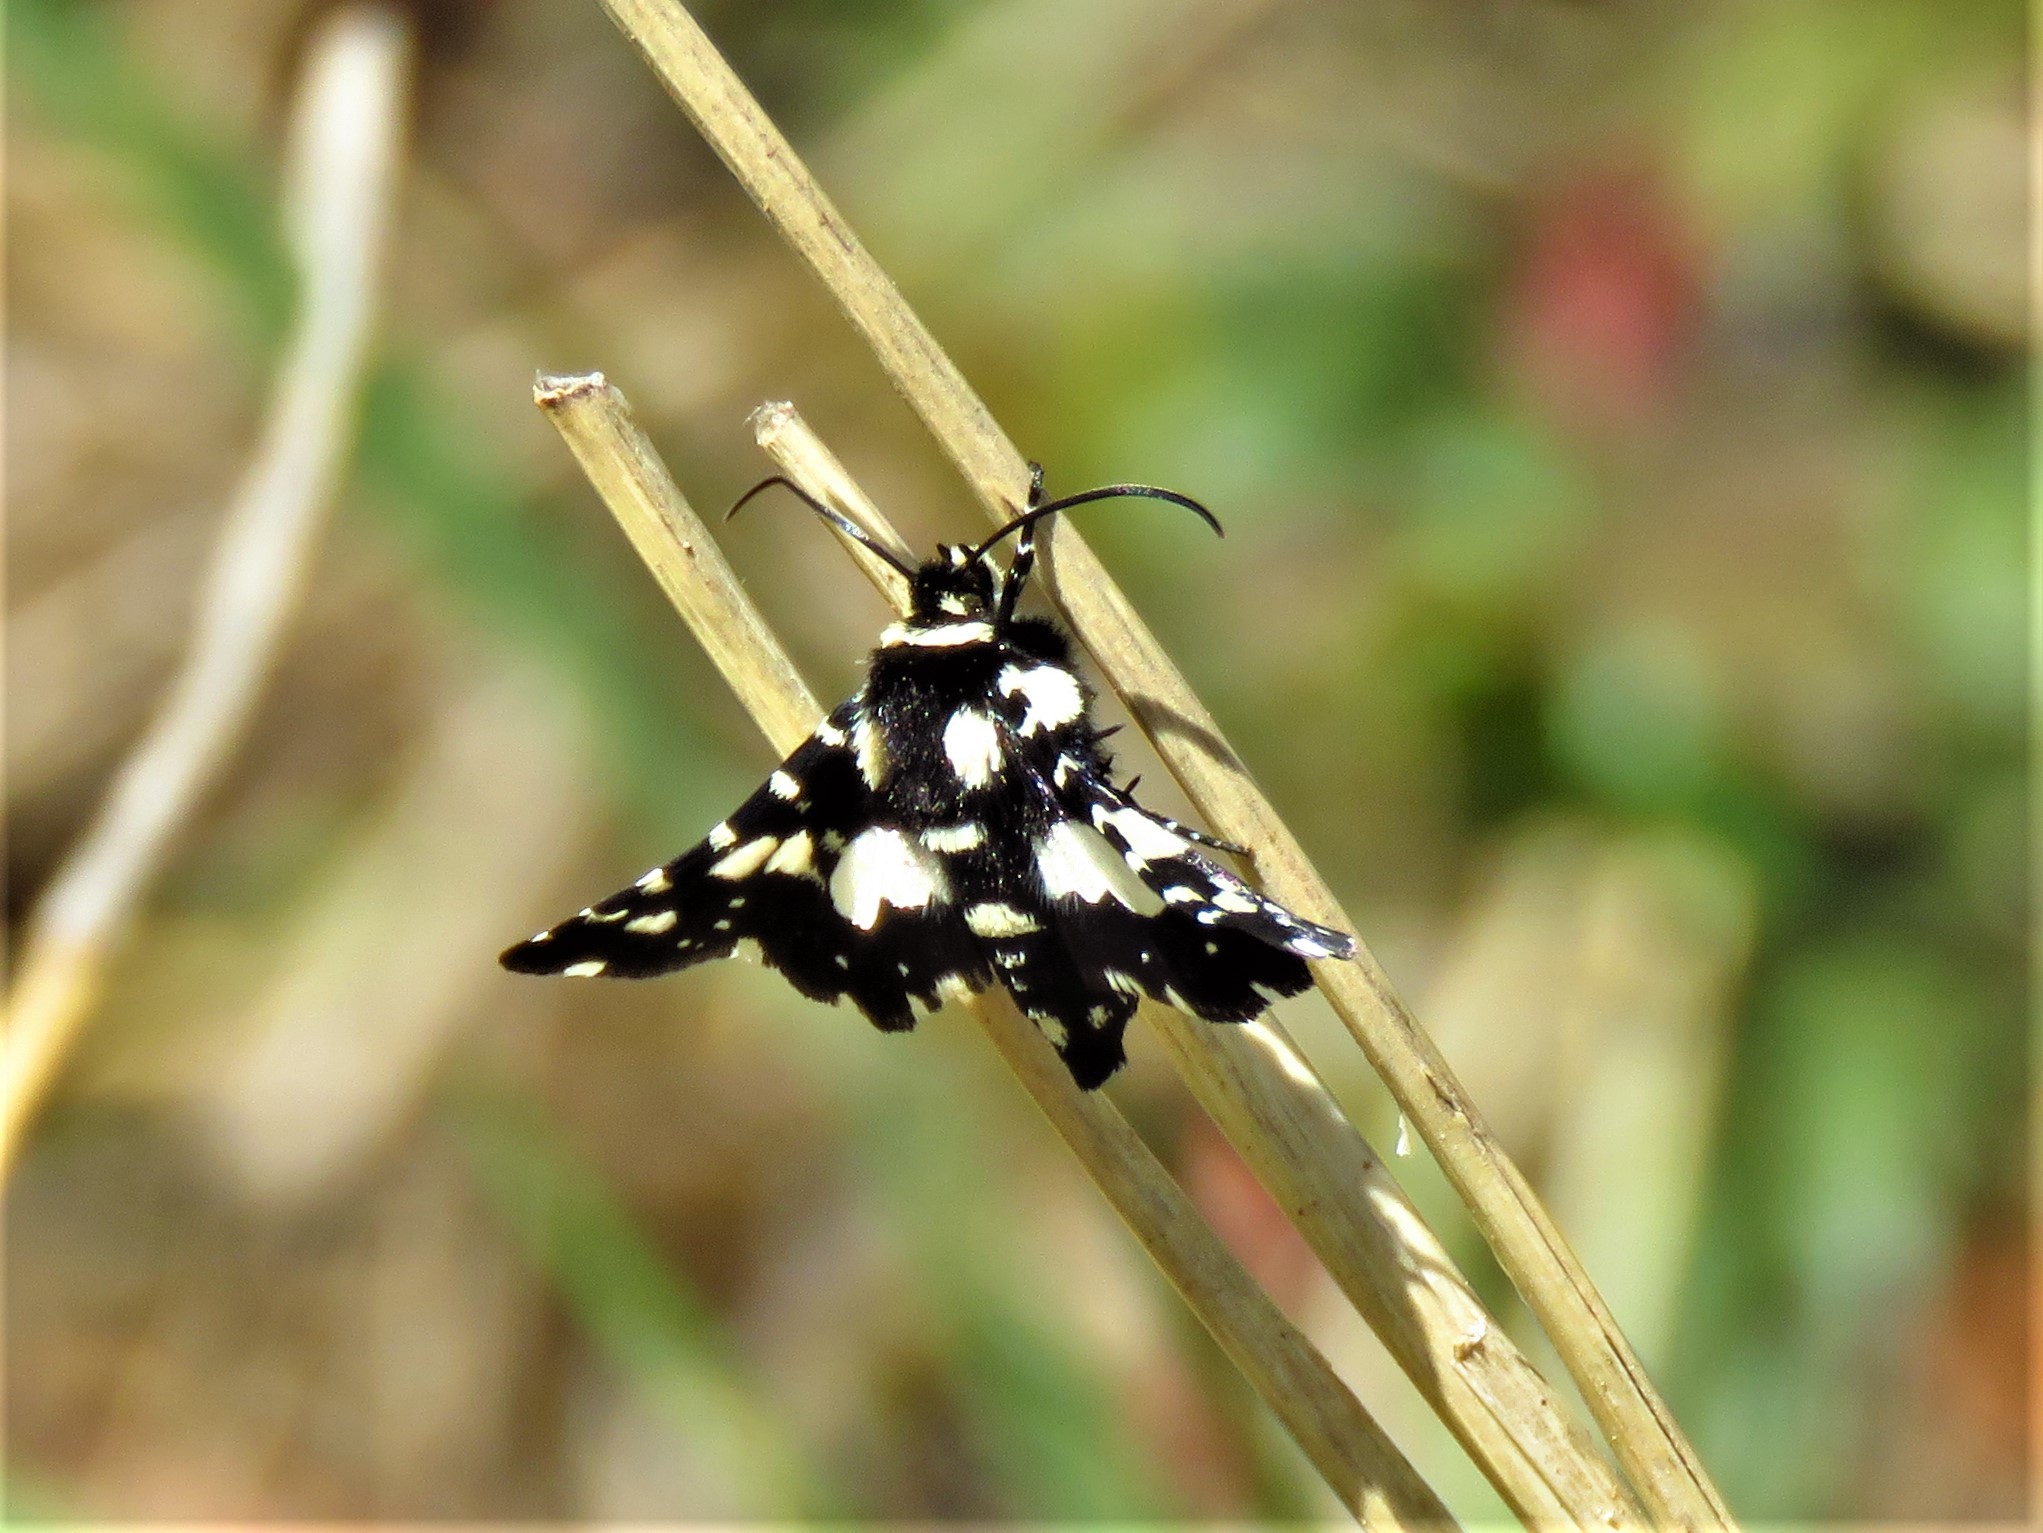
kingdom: Animalia
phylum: Arthropoda
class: Insecta
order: Lepidoptera
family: Thyrididae
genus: Pseudothyris
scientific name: Pseudothyris sepulchralis
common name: Mournful thyris moth
